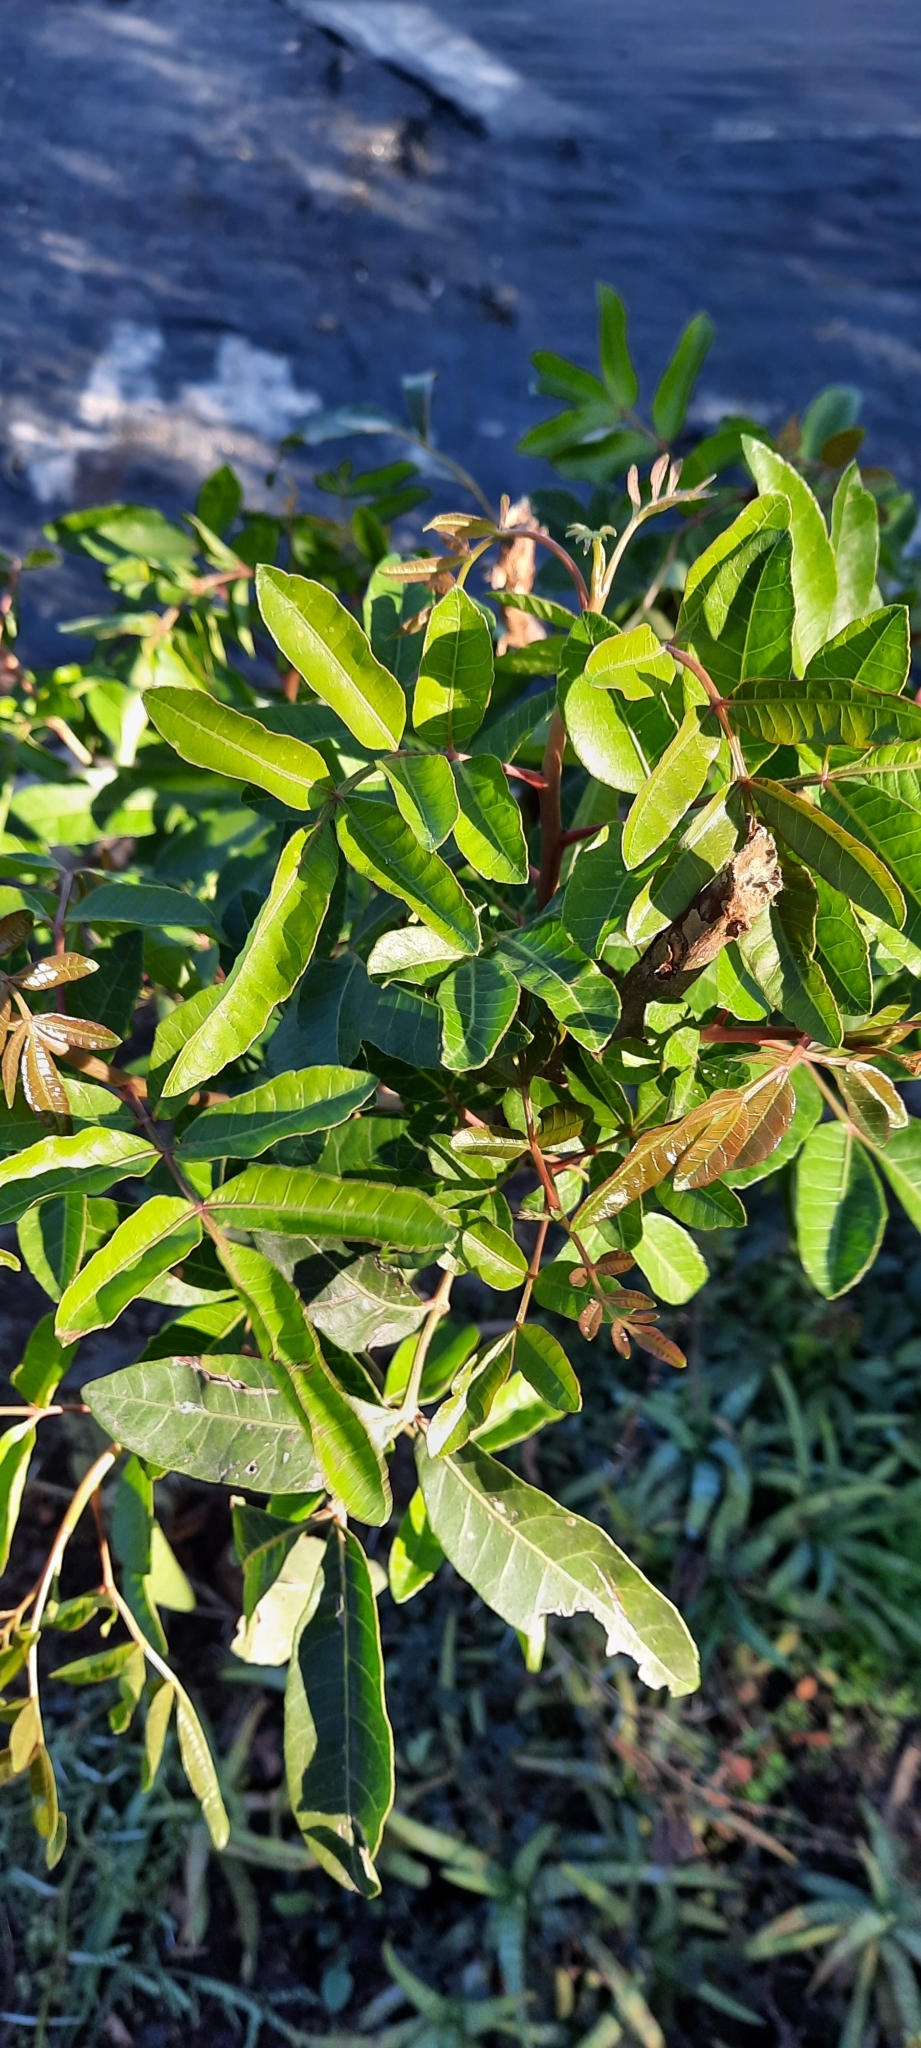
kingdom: Plantae
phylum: Tracheophyta
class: Magnoliopsida
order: Sapindales
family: Anacardiaceae
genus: Schinus
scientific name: Schinus terebinthifolia
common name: Brazilian peppertree
